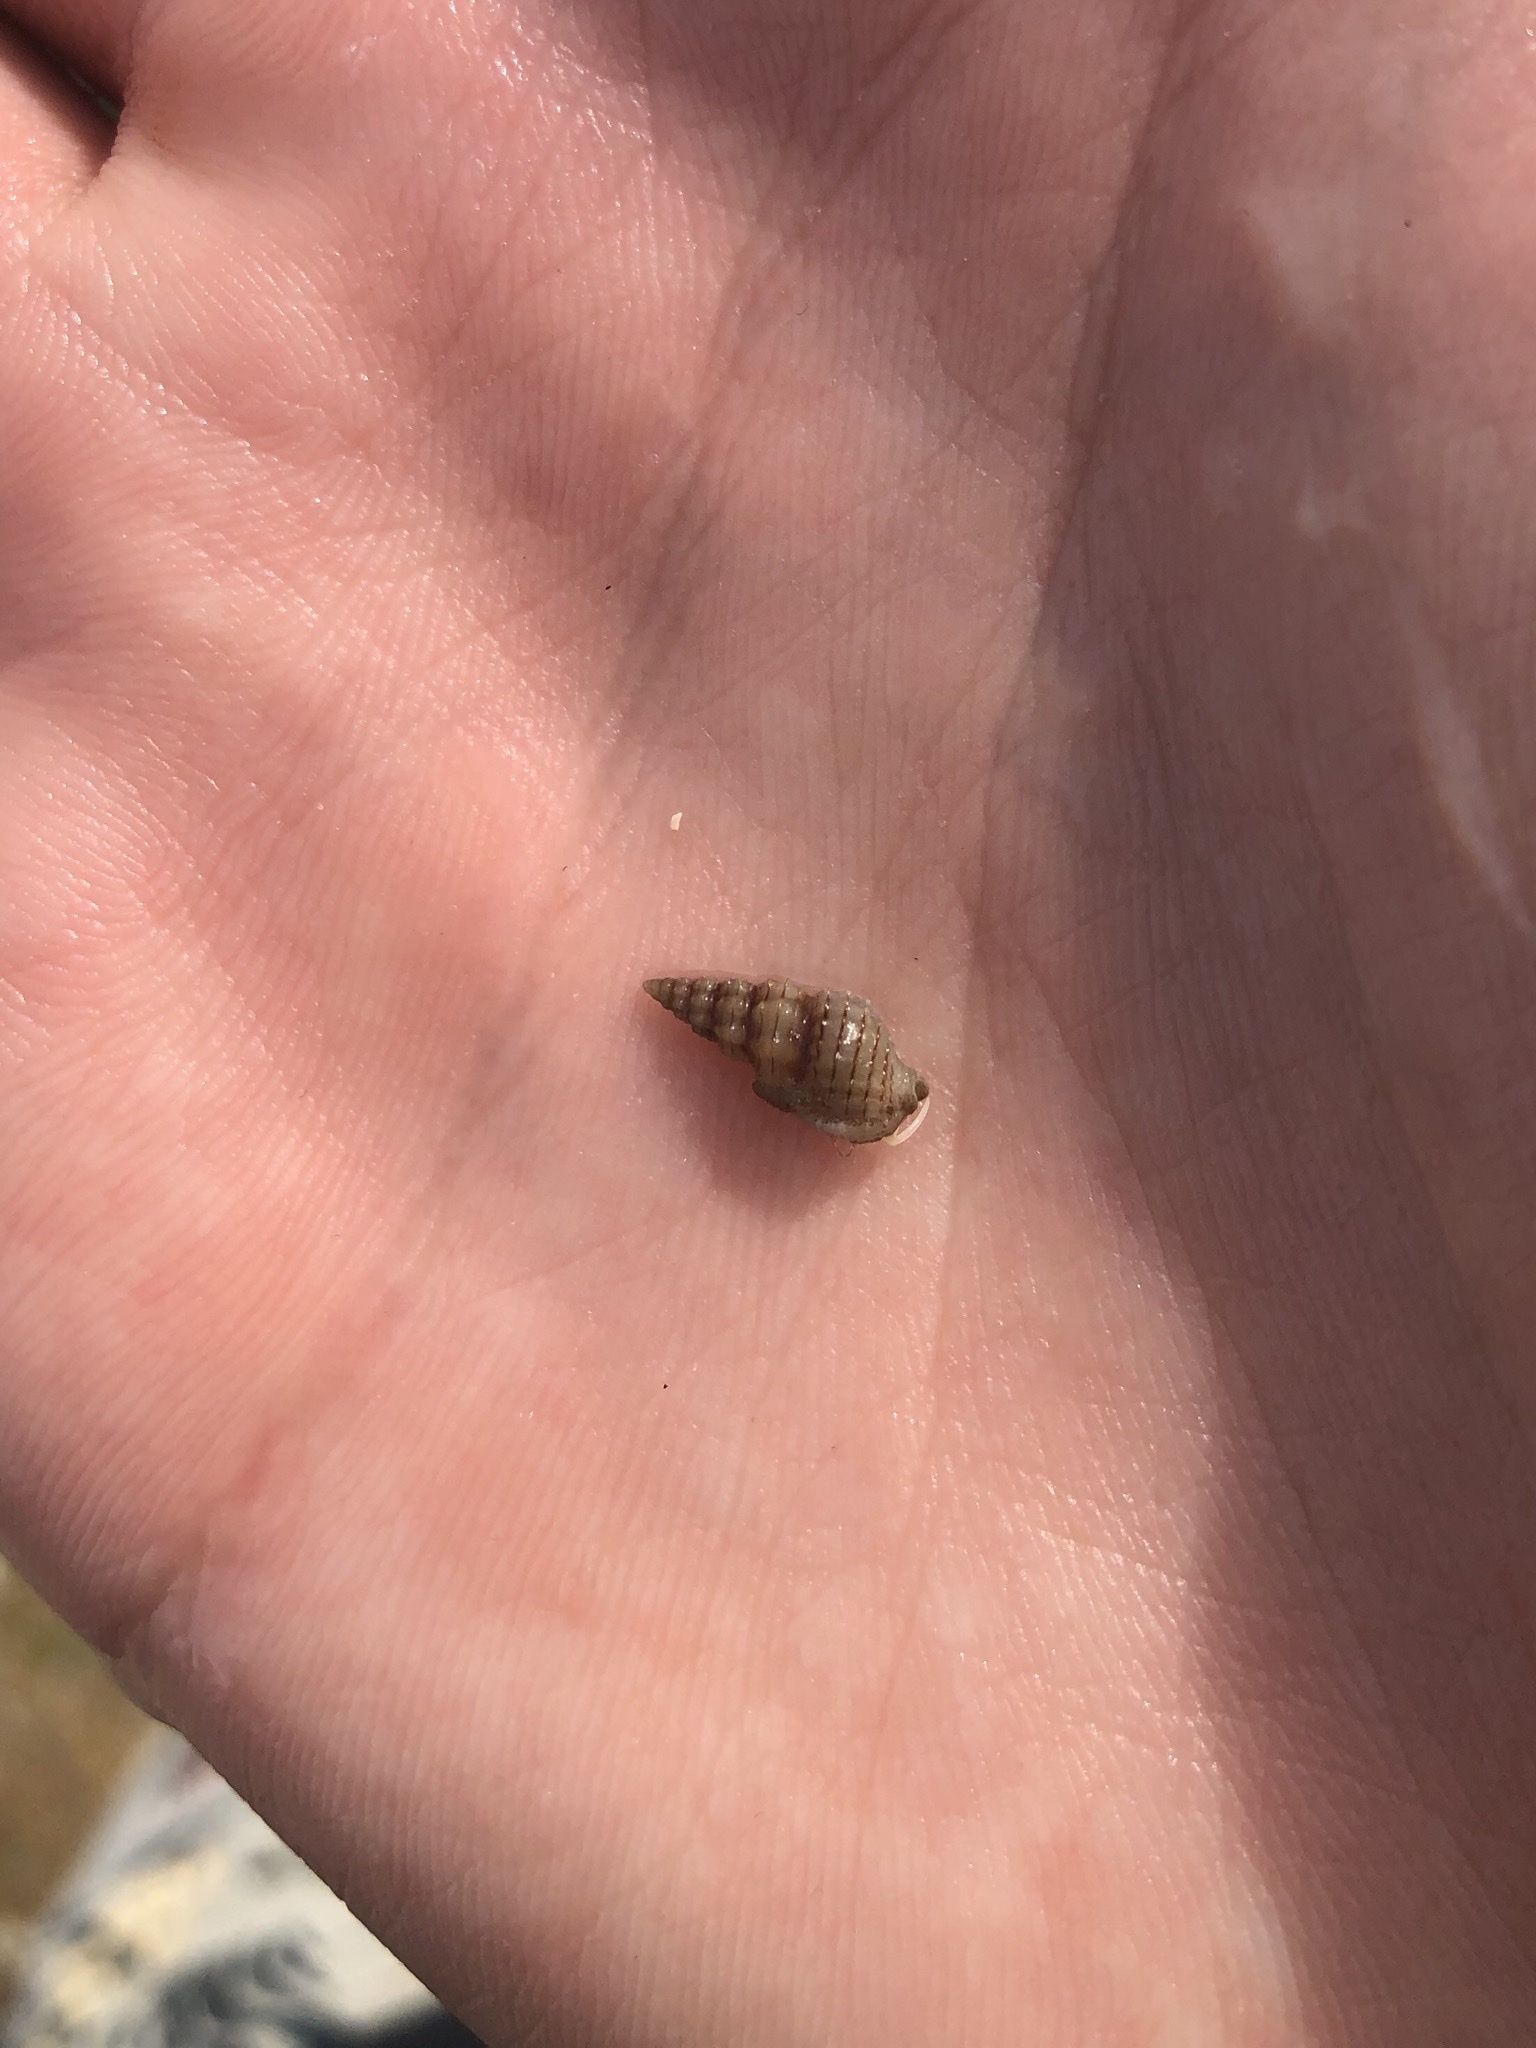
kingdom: Animalia
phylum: Mollusca
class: Gastropoda
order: Neogastropoda
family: Nassariidae
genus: Nassarius
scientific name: Nassarius acutus
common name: Sharp nassa
